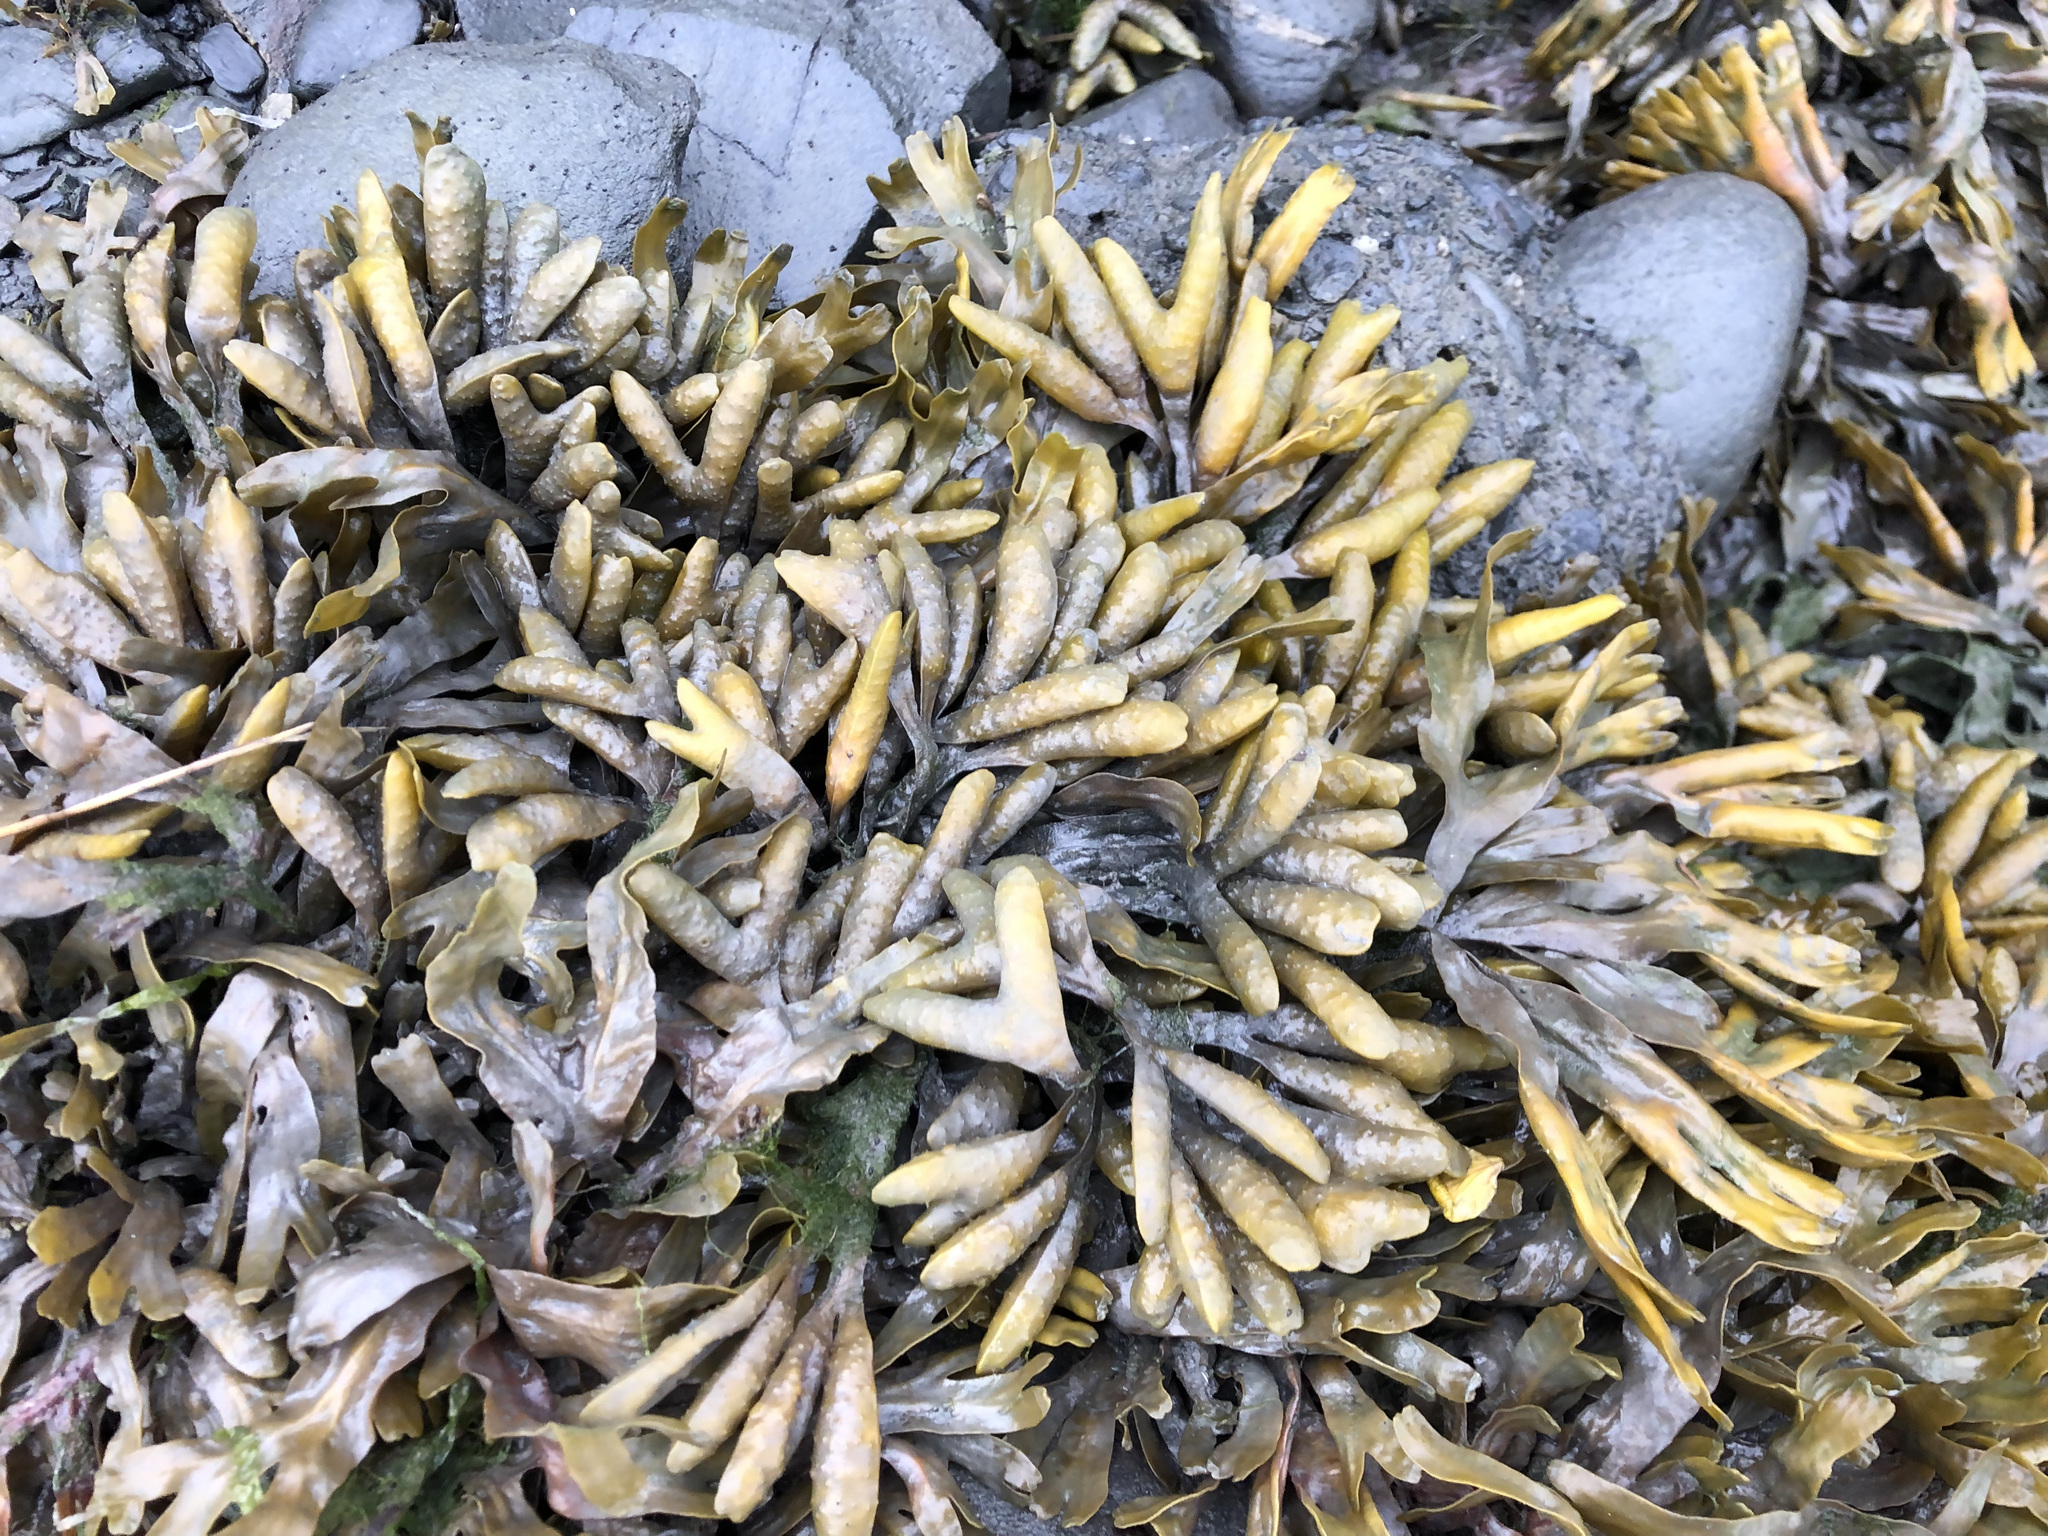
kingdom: Chromista
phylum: Ochrophyta
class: Phaeophyceae
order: Fucales
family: Fucaceae
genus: Fucus
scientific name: Fucus distichus
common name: Rockweed
